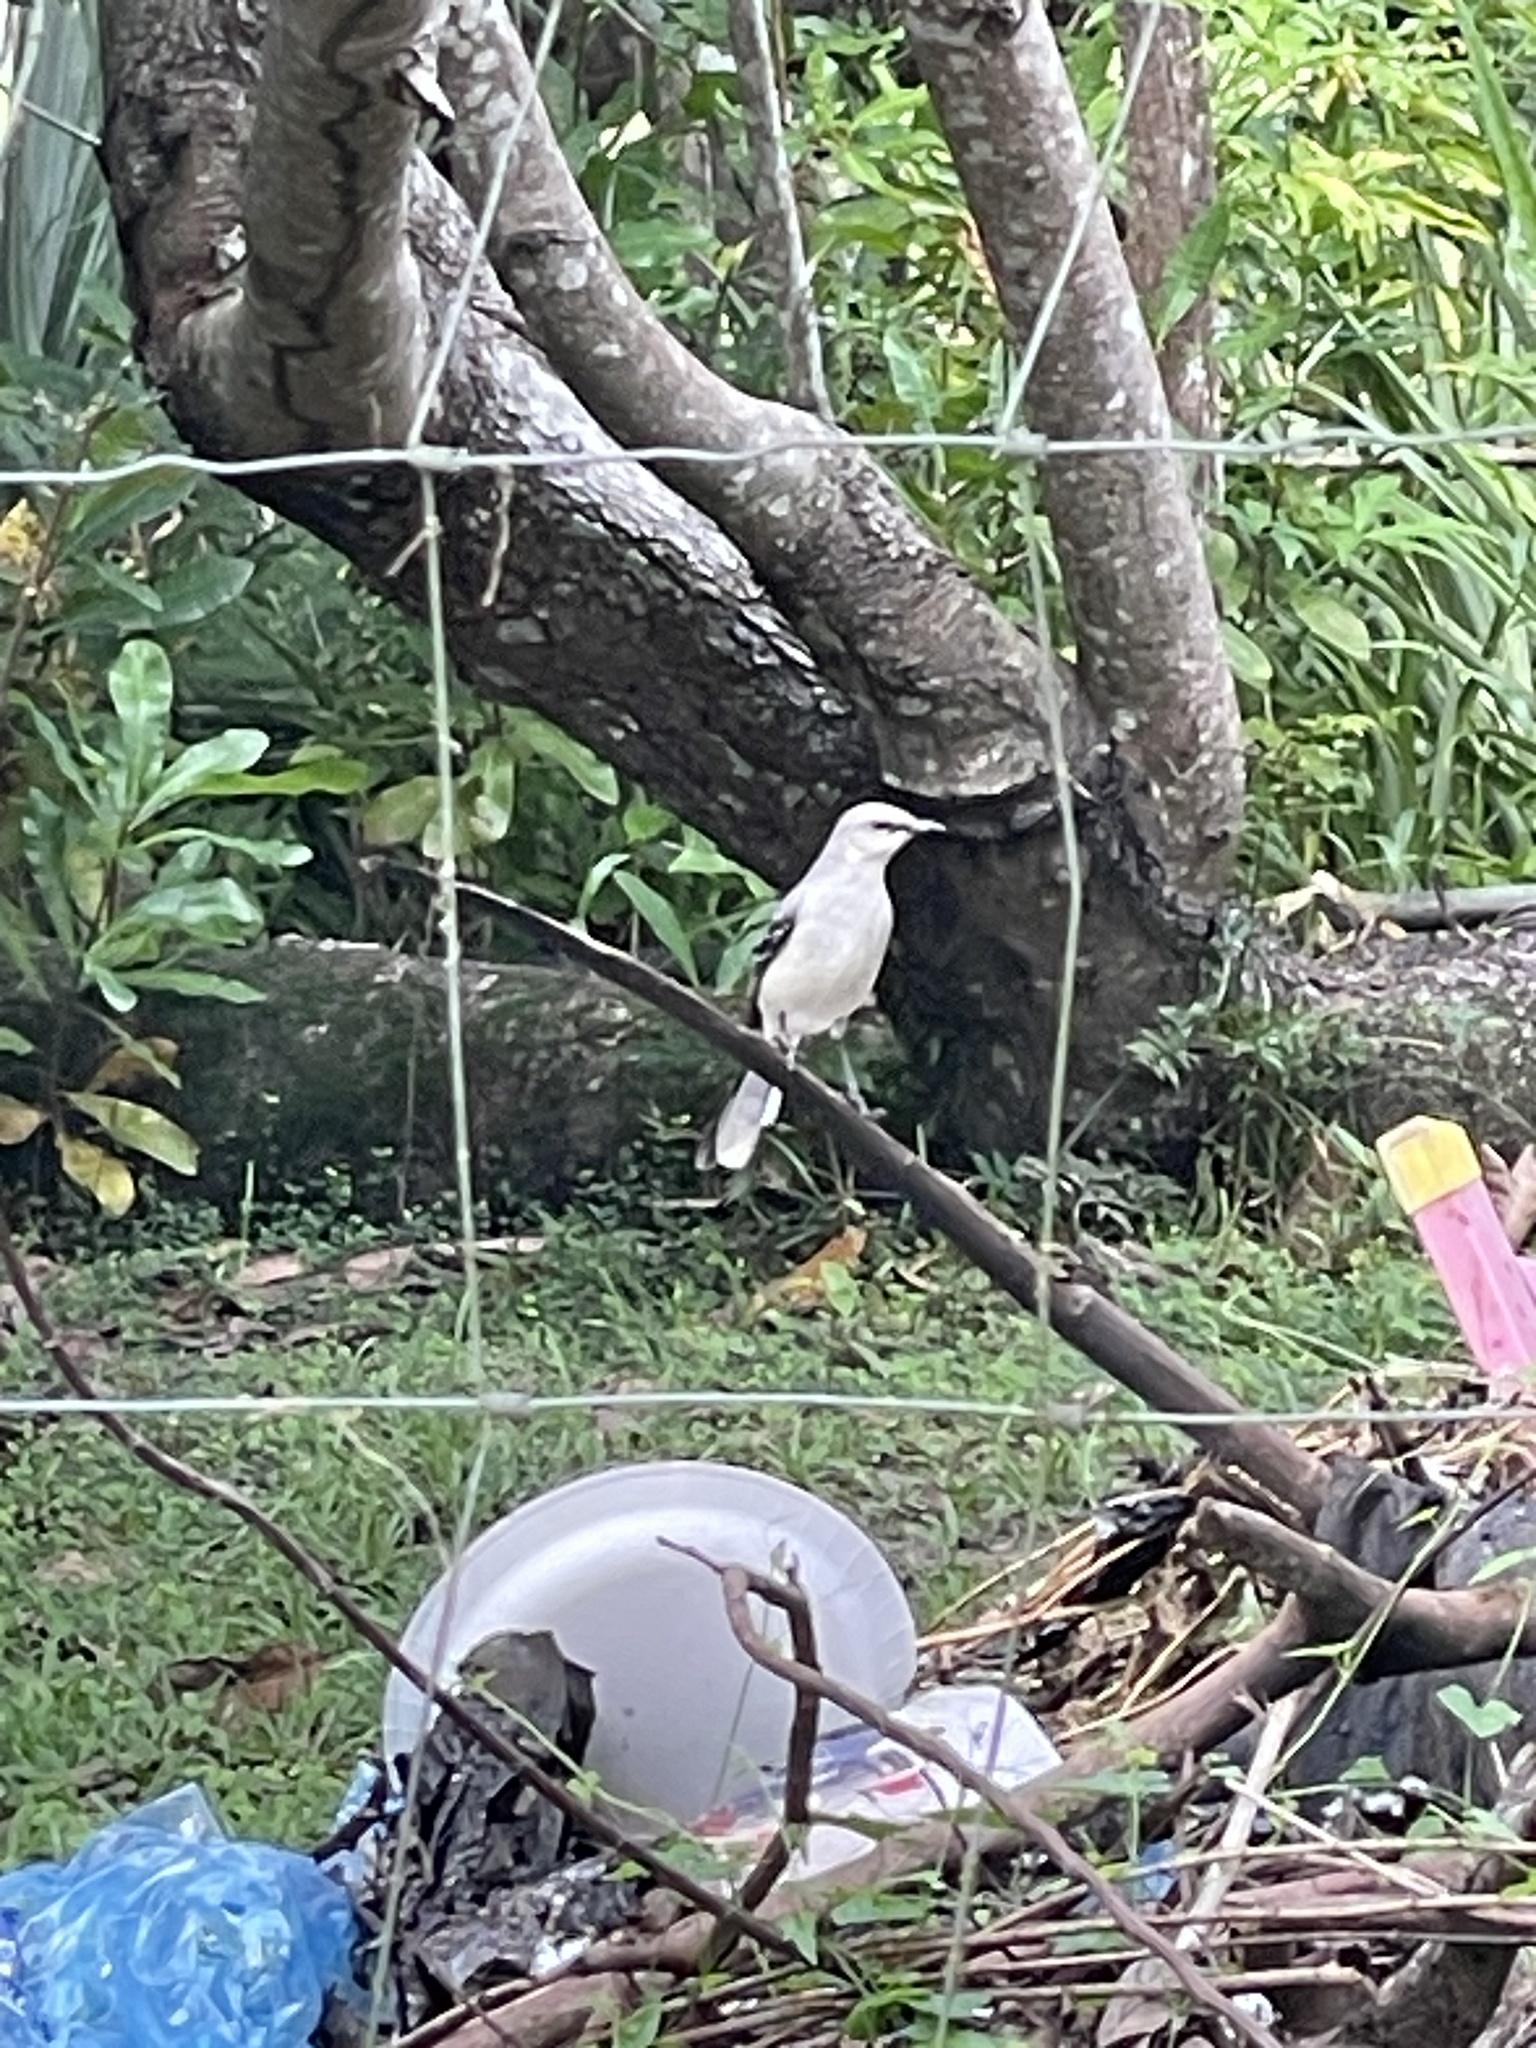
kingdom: Animalia
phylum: Chordata
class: Aves
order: Passeriformes
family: Mimidae
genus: Mimus
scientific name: Mimus gilvus
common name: Tropical mockingbird
